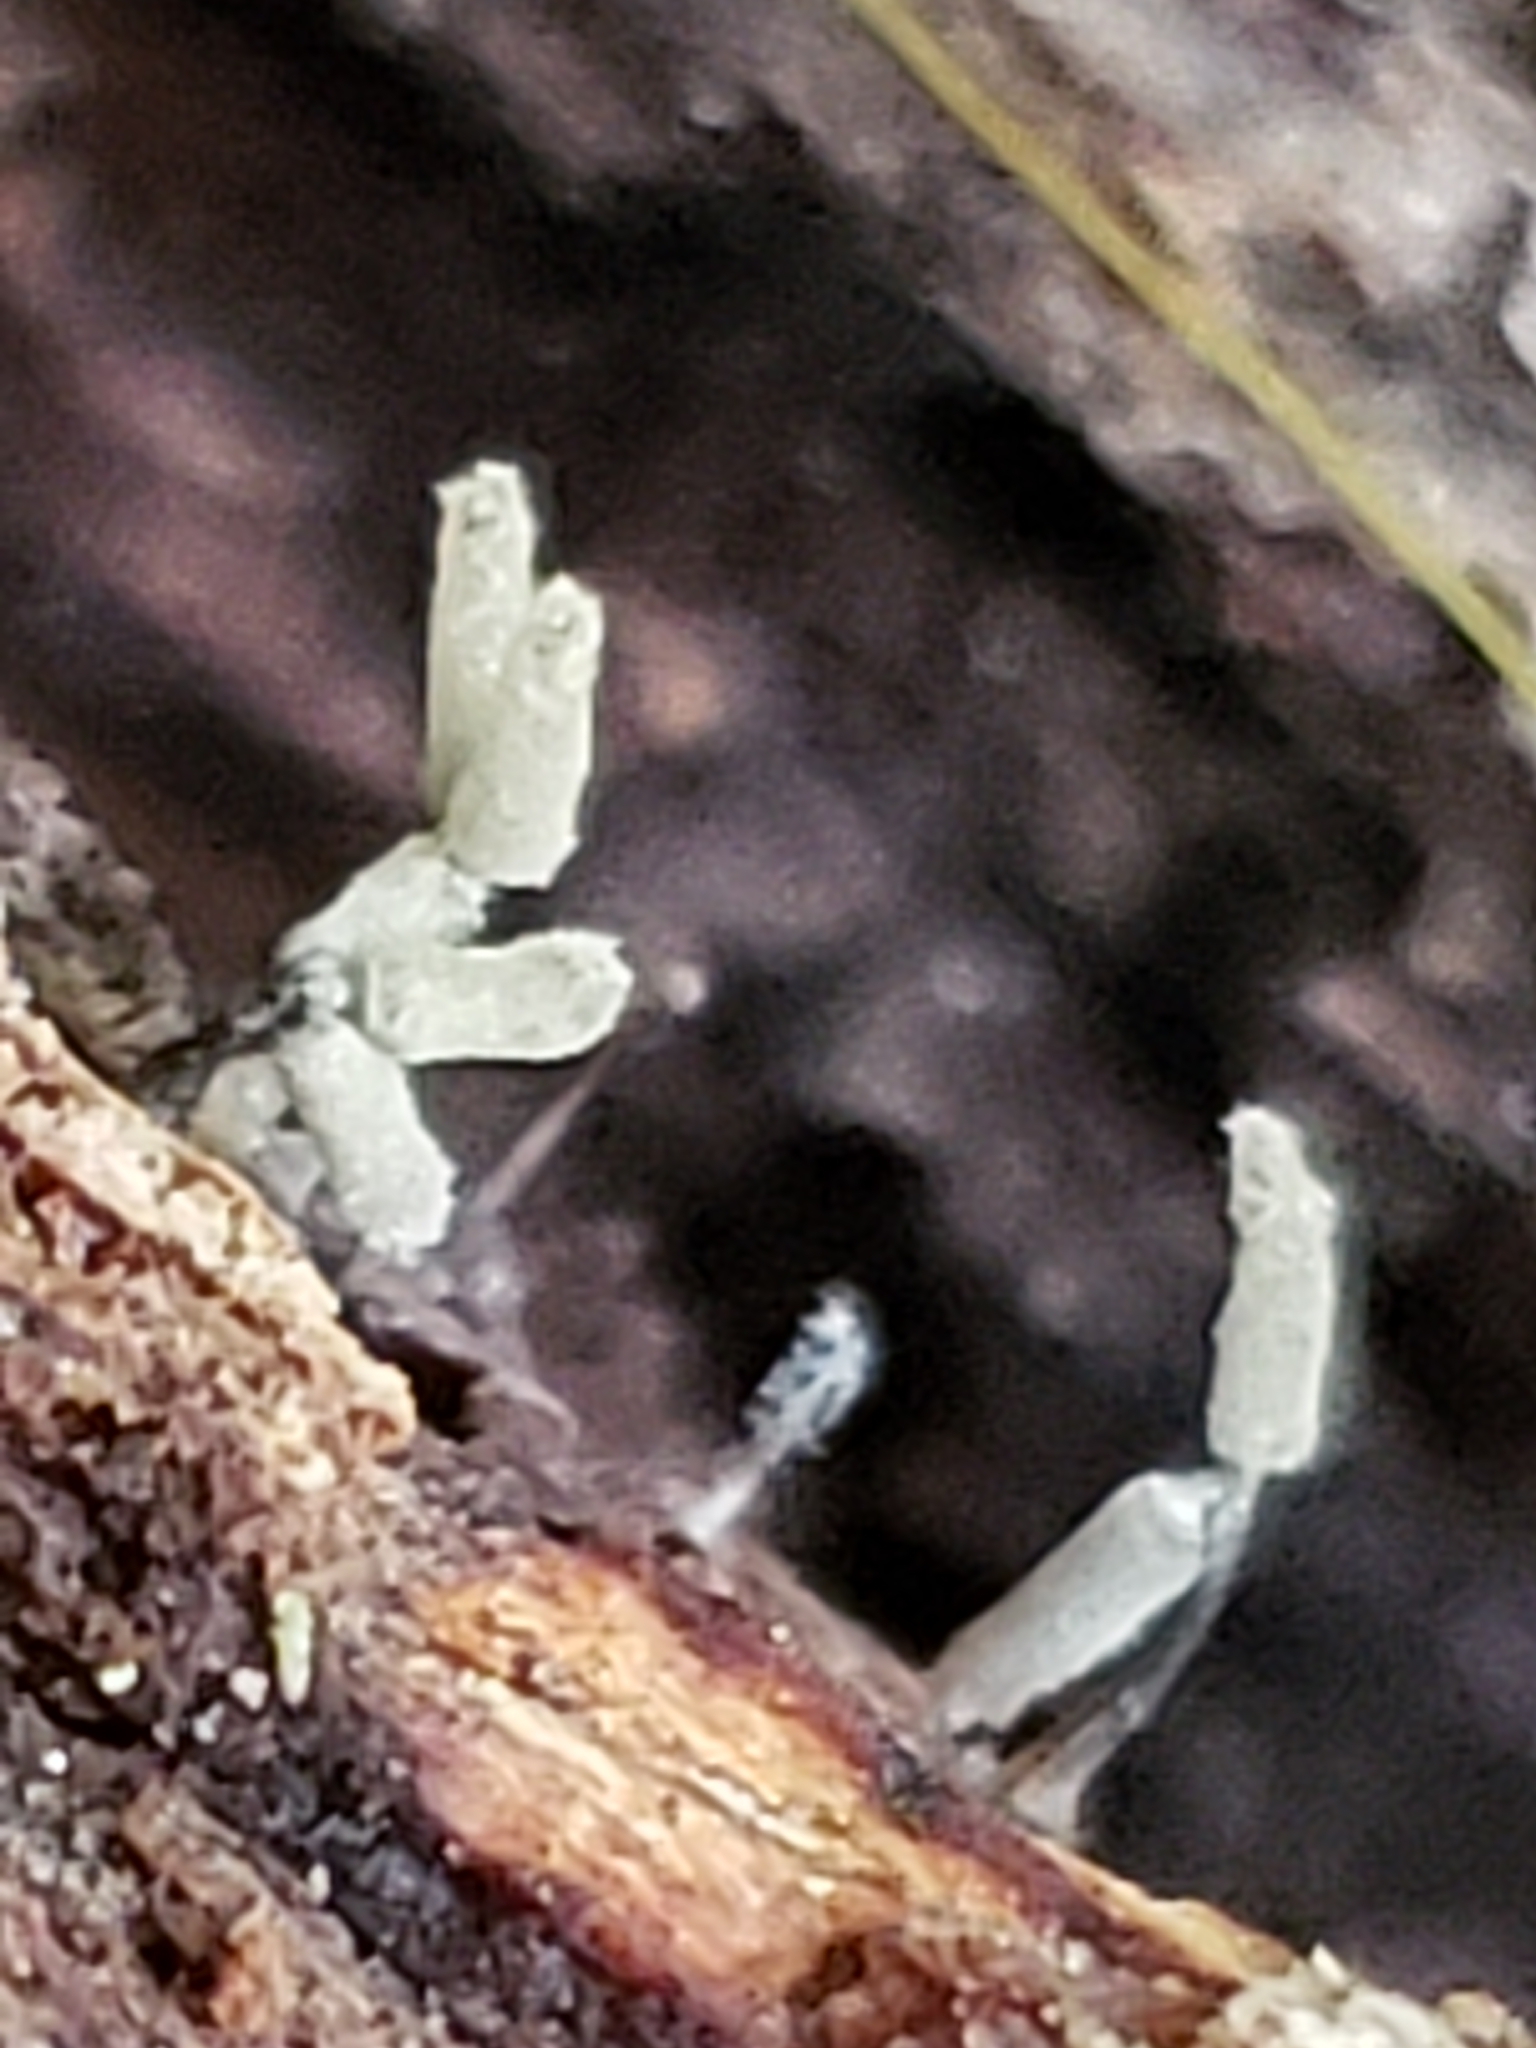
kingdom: Protozoa
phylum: Mycetozoa
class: Myxomycetes
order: Trichiales
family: Arcyriaceae
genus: Arcyria
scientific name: Arcyria cinerea
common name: White carnival candy slime mold
